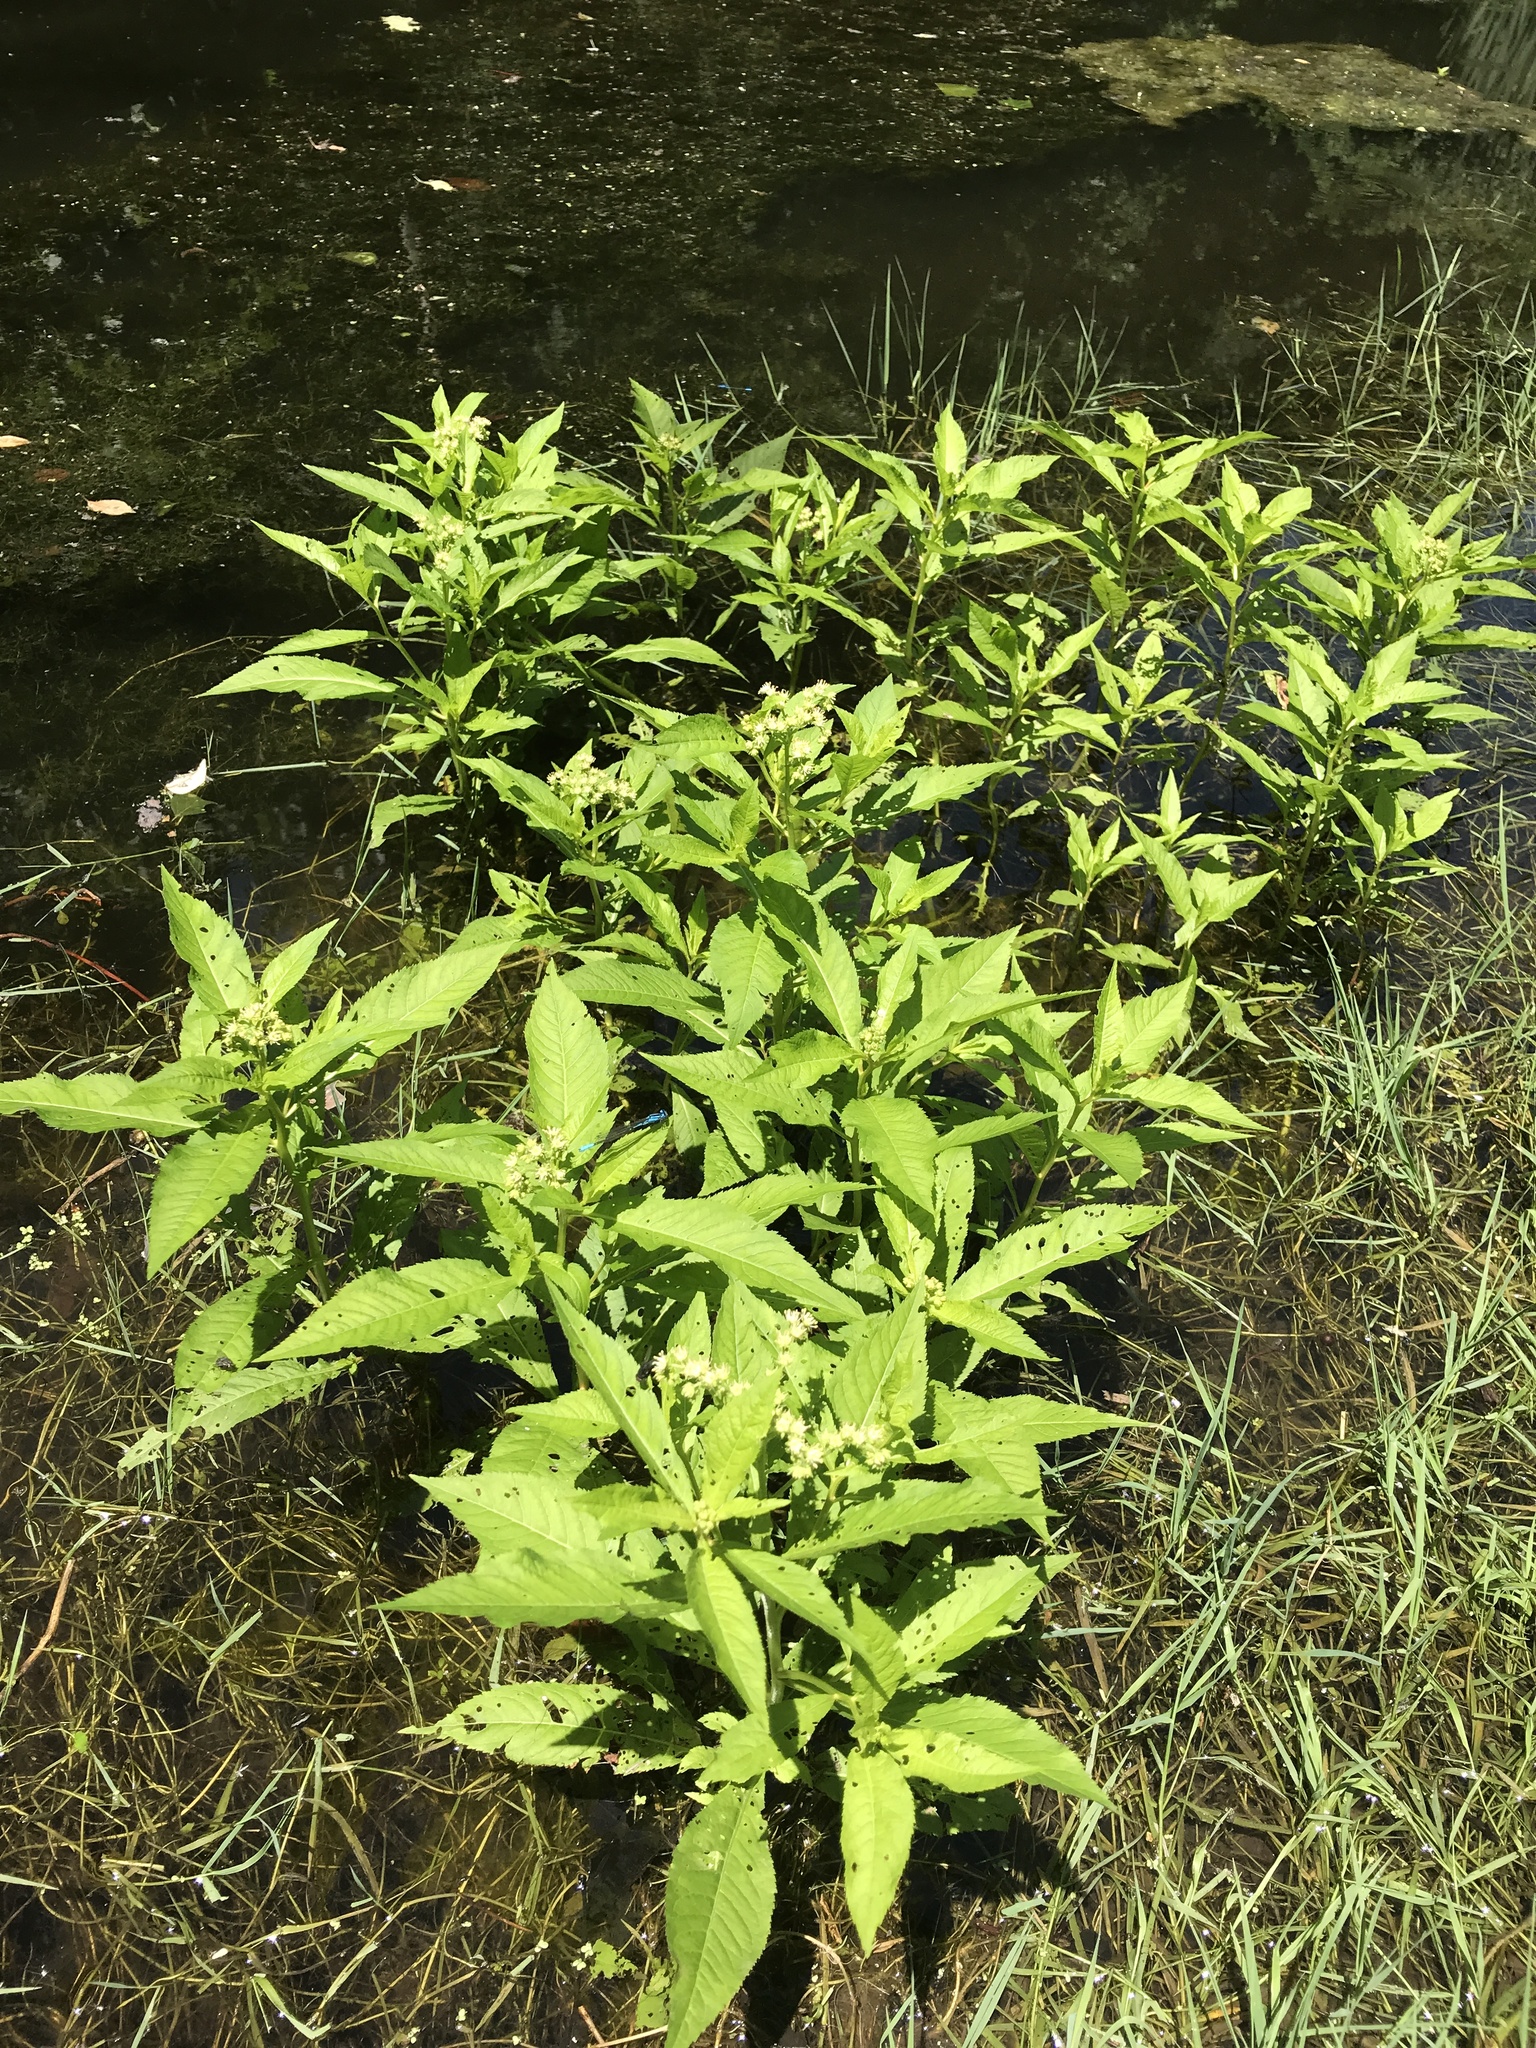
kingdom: Plantae
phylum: Tracheophyta
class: Magnoliopsida
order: Saxifragales
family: Penthoraceae
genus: Penthorum
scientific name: Penthorum sedoides
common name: Ditch stonecrop
